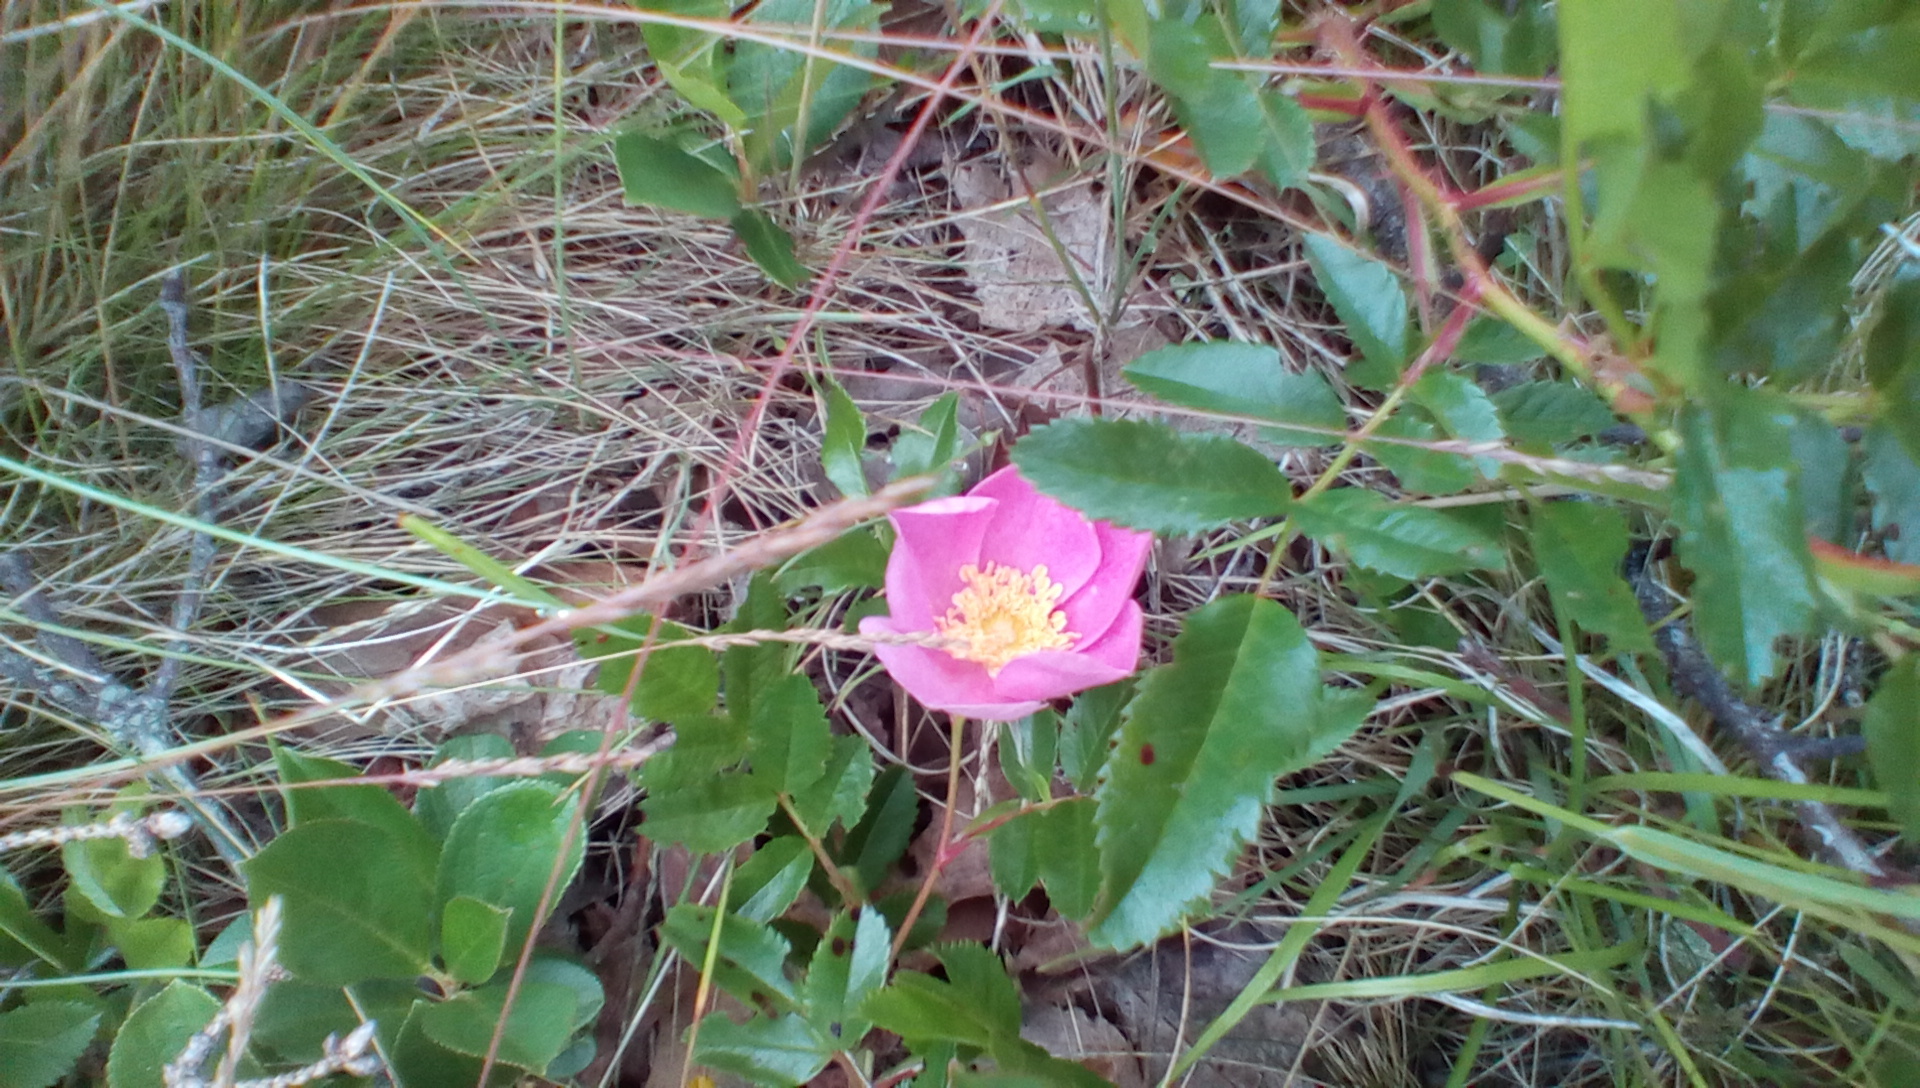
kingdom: Plantae
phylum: Tracheophyta
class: Magnoliopsida
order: Rosales
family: Rosaceae
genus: Rosa
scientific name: Rosa carolina
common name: Pasture rose
